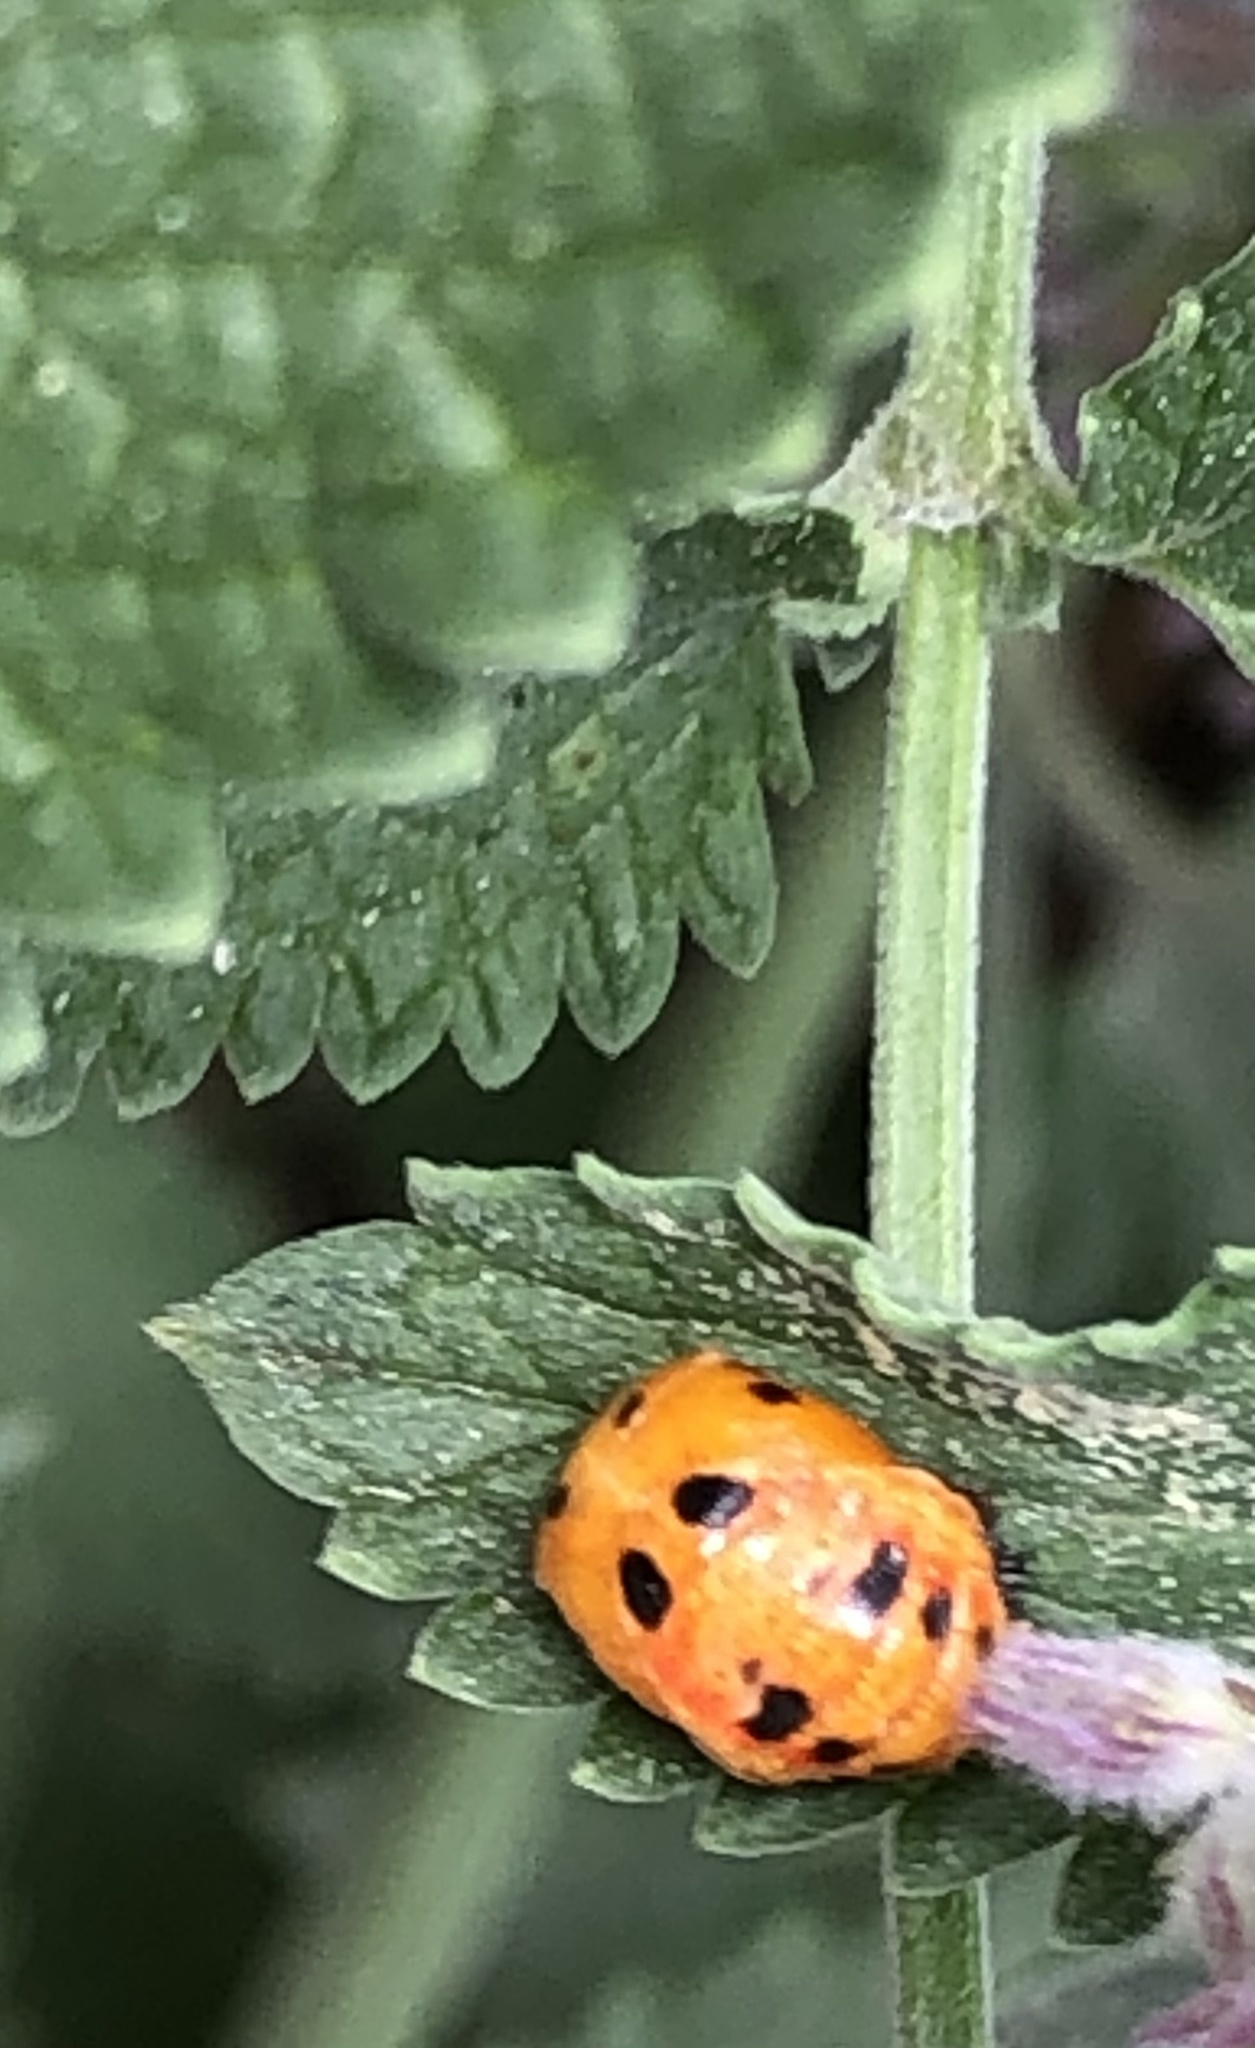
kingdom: Animalia
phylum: Arthropoda
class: Insecta
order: Coleoptera
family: Coccinellidae
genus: Harmonia
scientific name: Harmonia axyridis
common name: Harlequin ladybird
